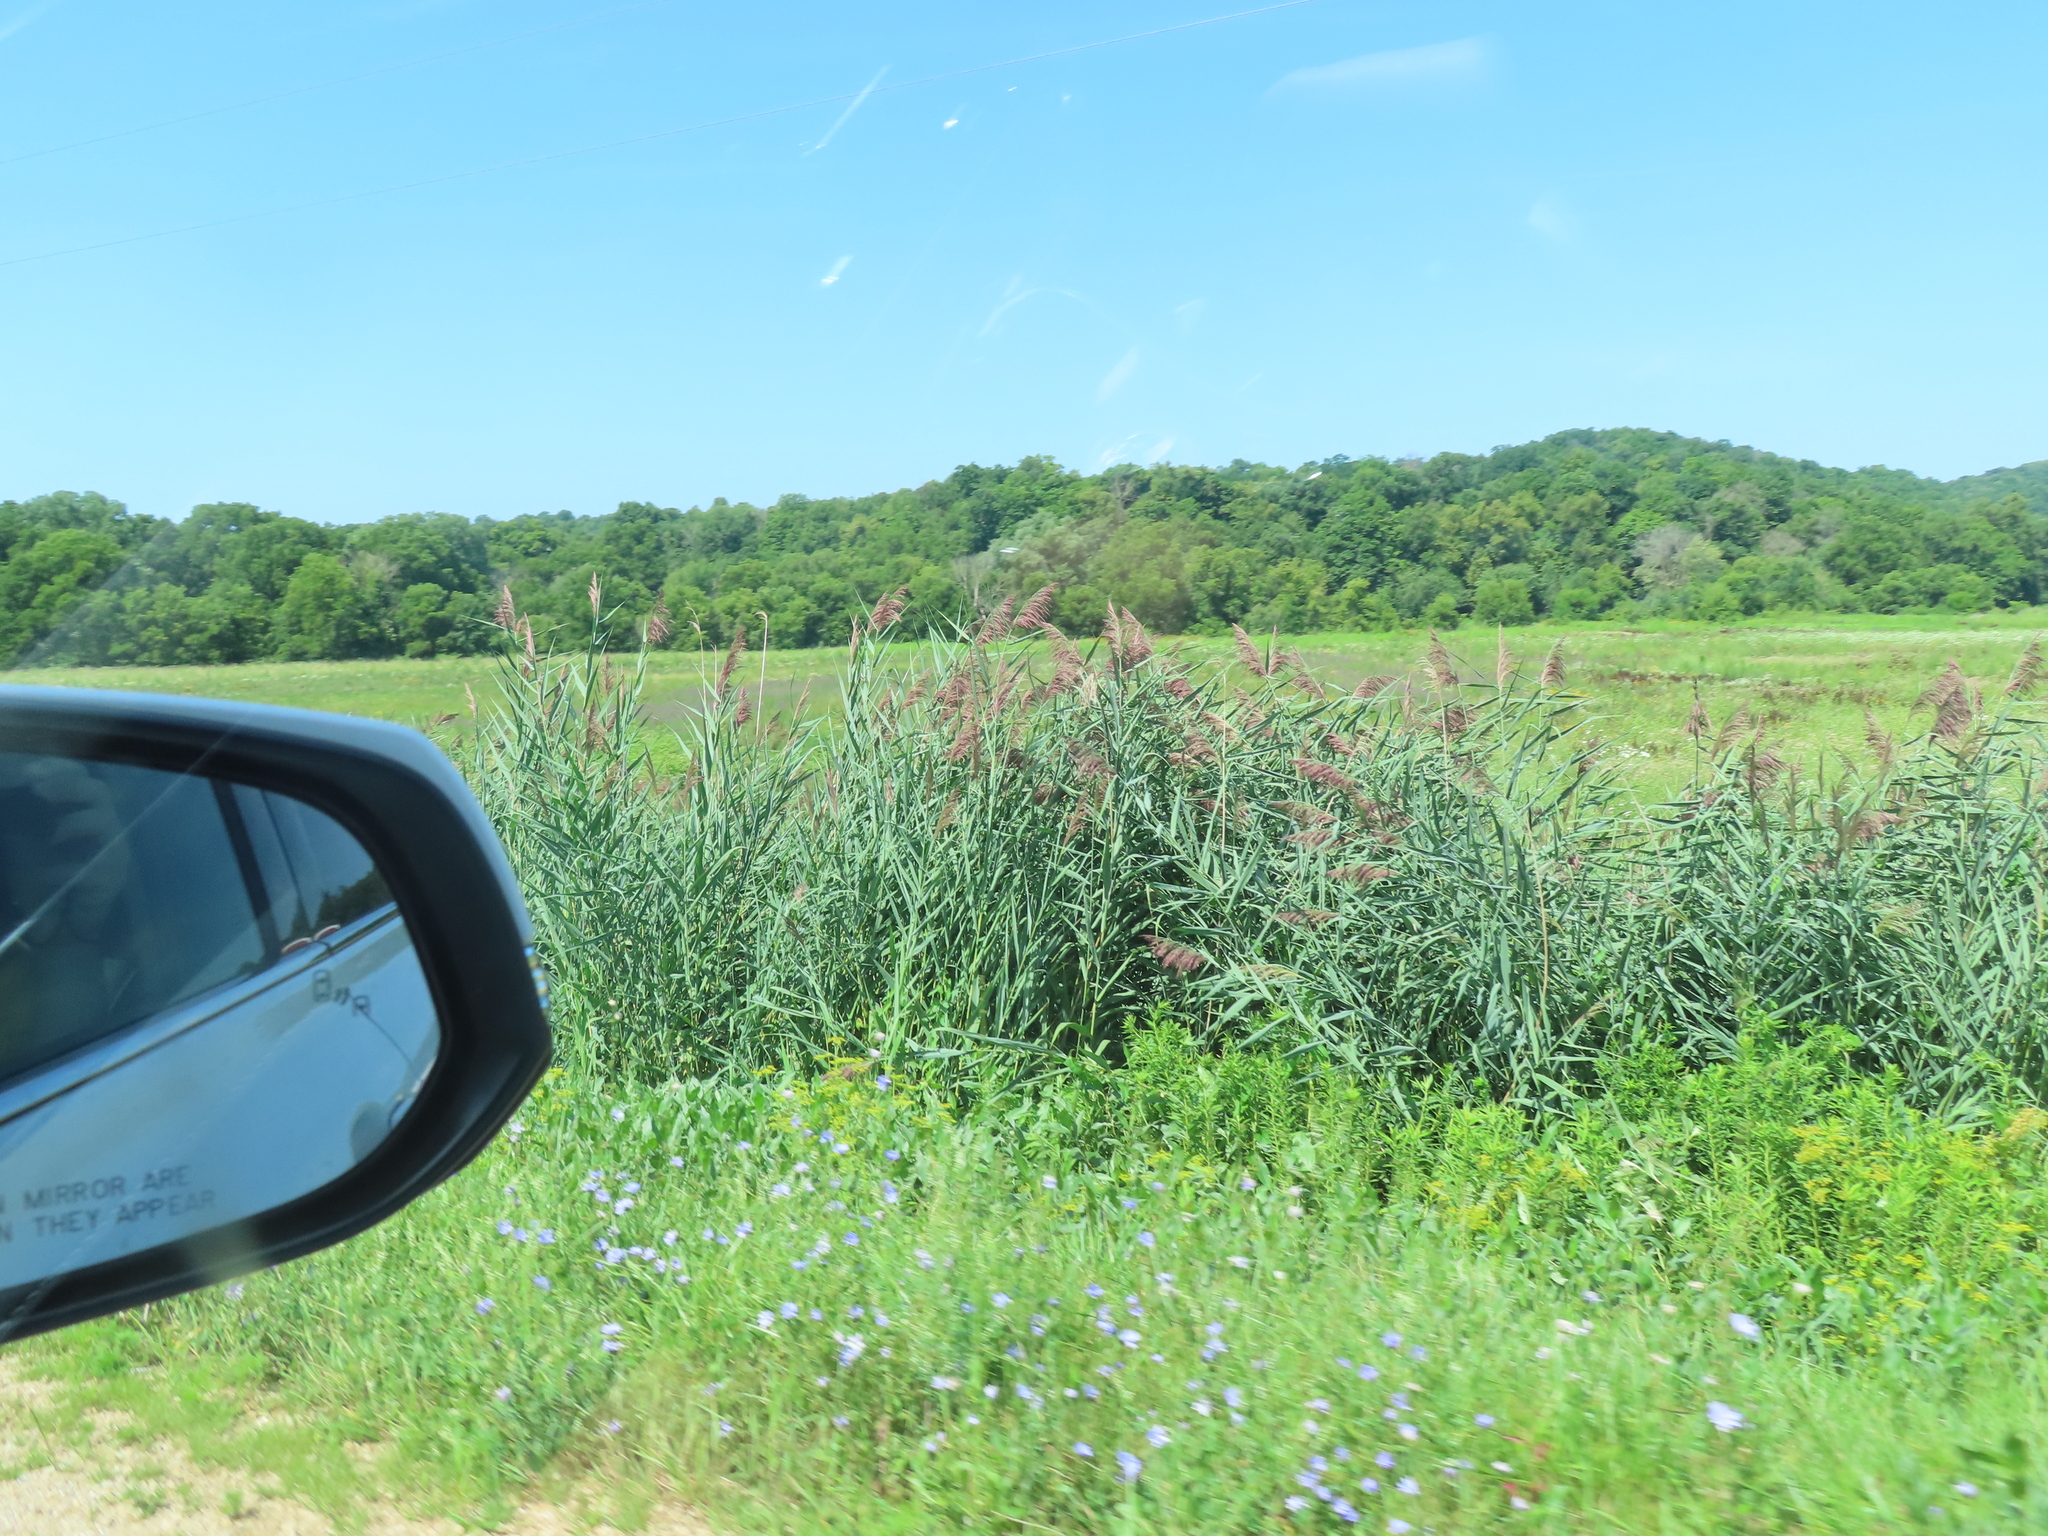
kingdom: Plantae
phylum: Tracheophyta
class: Liliopsida
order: Poales
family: Poaceae
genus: Phragmites
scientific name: Phragmites australis
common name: Common reed
